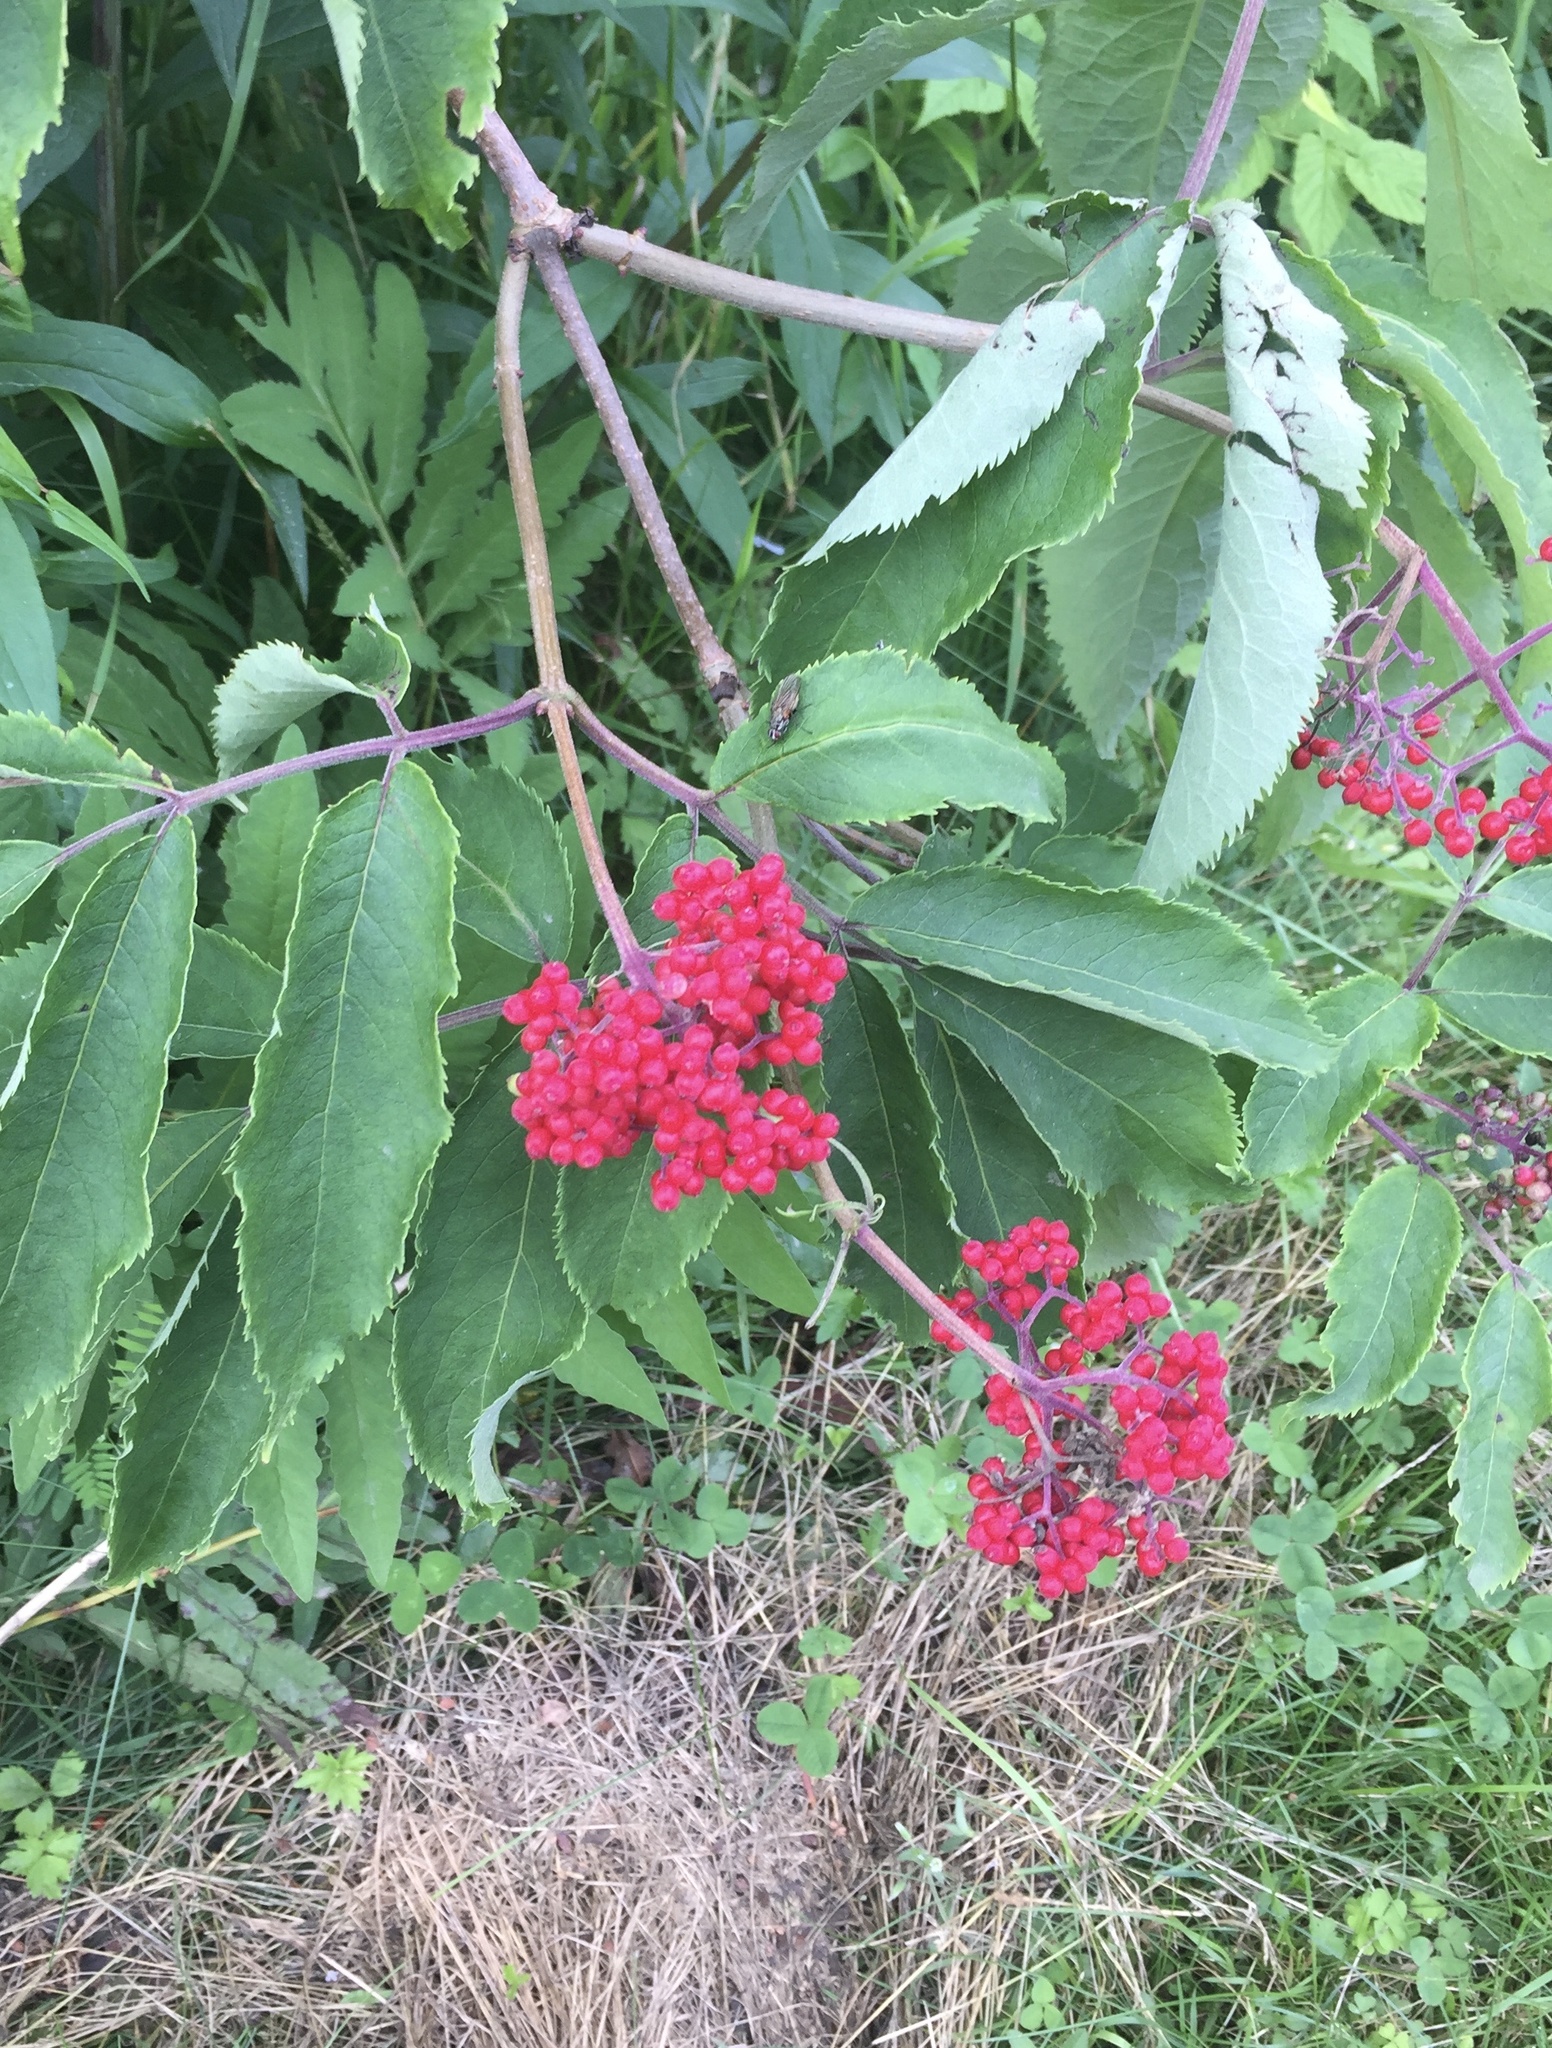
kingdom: Plantae
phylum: Tracheophyta
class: Magnoliopsida
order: Dipsacales
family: Viburnaceae
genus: Sambucus
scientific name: Sambucus racemosa
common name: Red-berried elder
